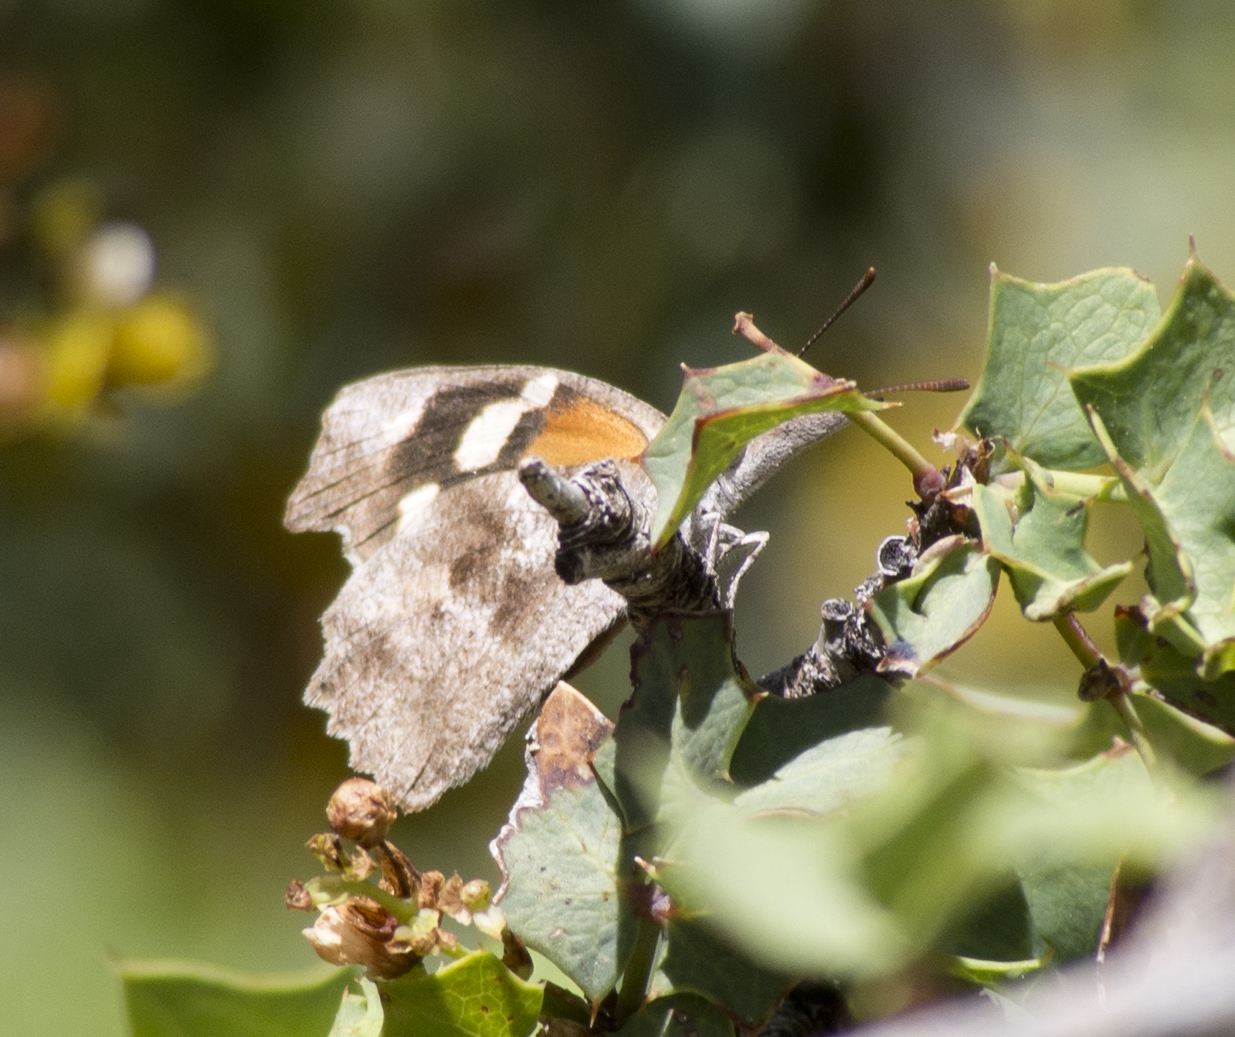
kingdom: Animalia
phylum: Arthropoda
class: Insecta
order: Lepidoptera
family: Nymphalidae
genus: Libytheana
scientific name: Libytheana carinenta
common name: American snout
